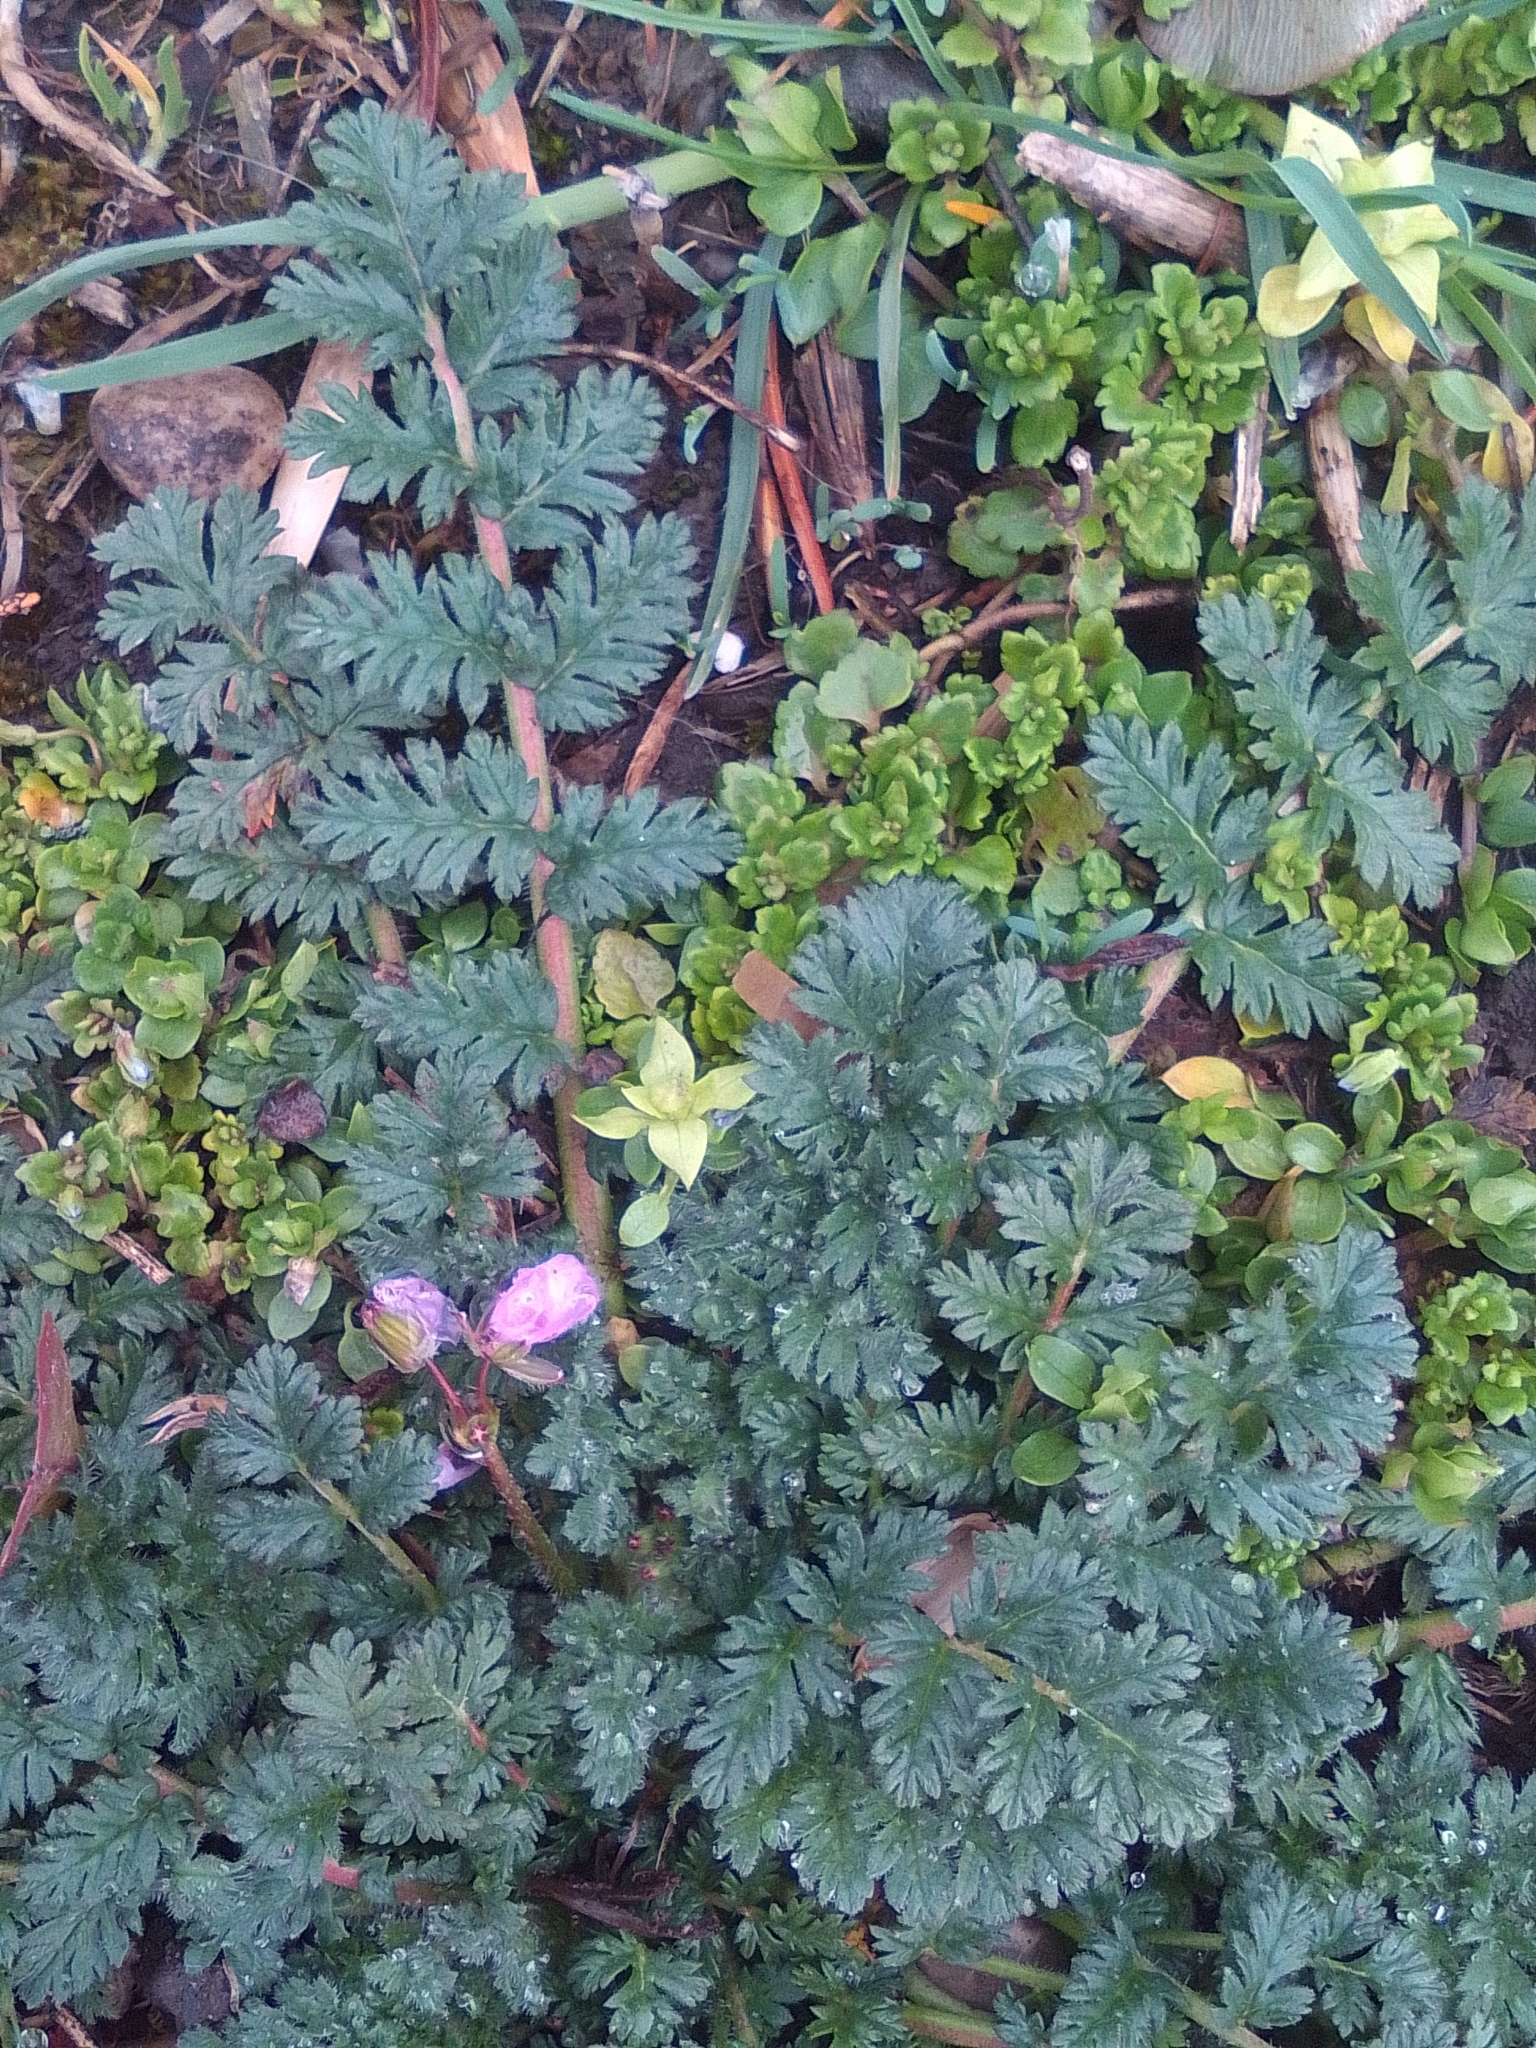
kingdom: Plantae
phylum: Tracheophyta
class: Magnoliopsida
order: Geraniales
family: Geraniaceae
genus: Erodium
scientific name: Erodium cicutarium
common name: Common stork's-bill
